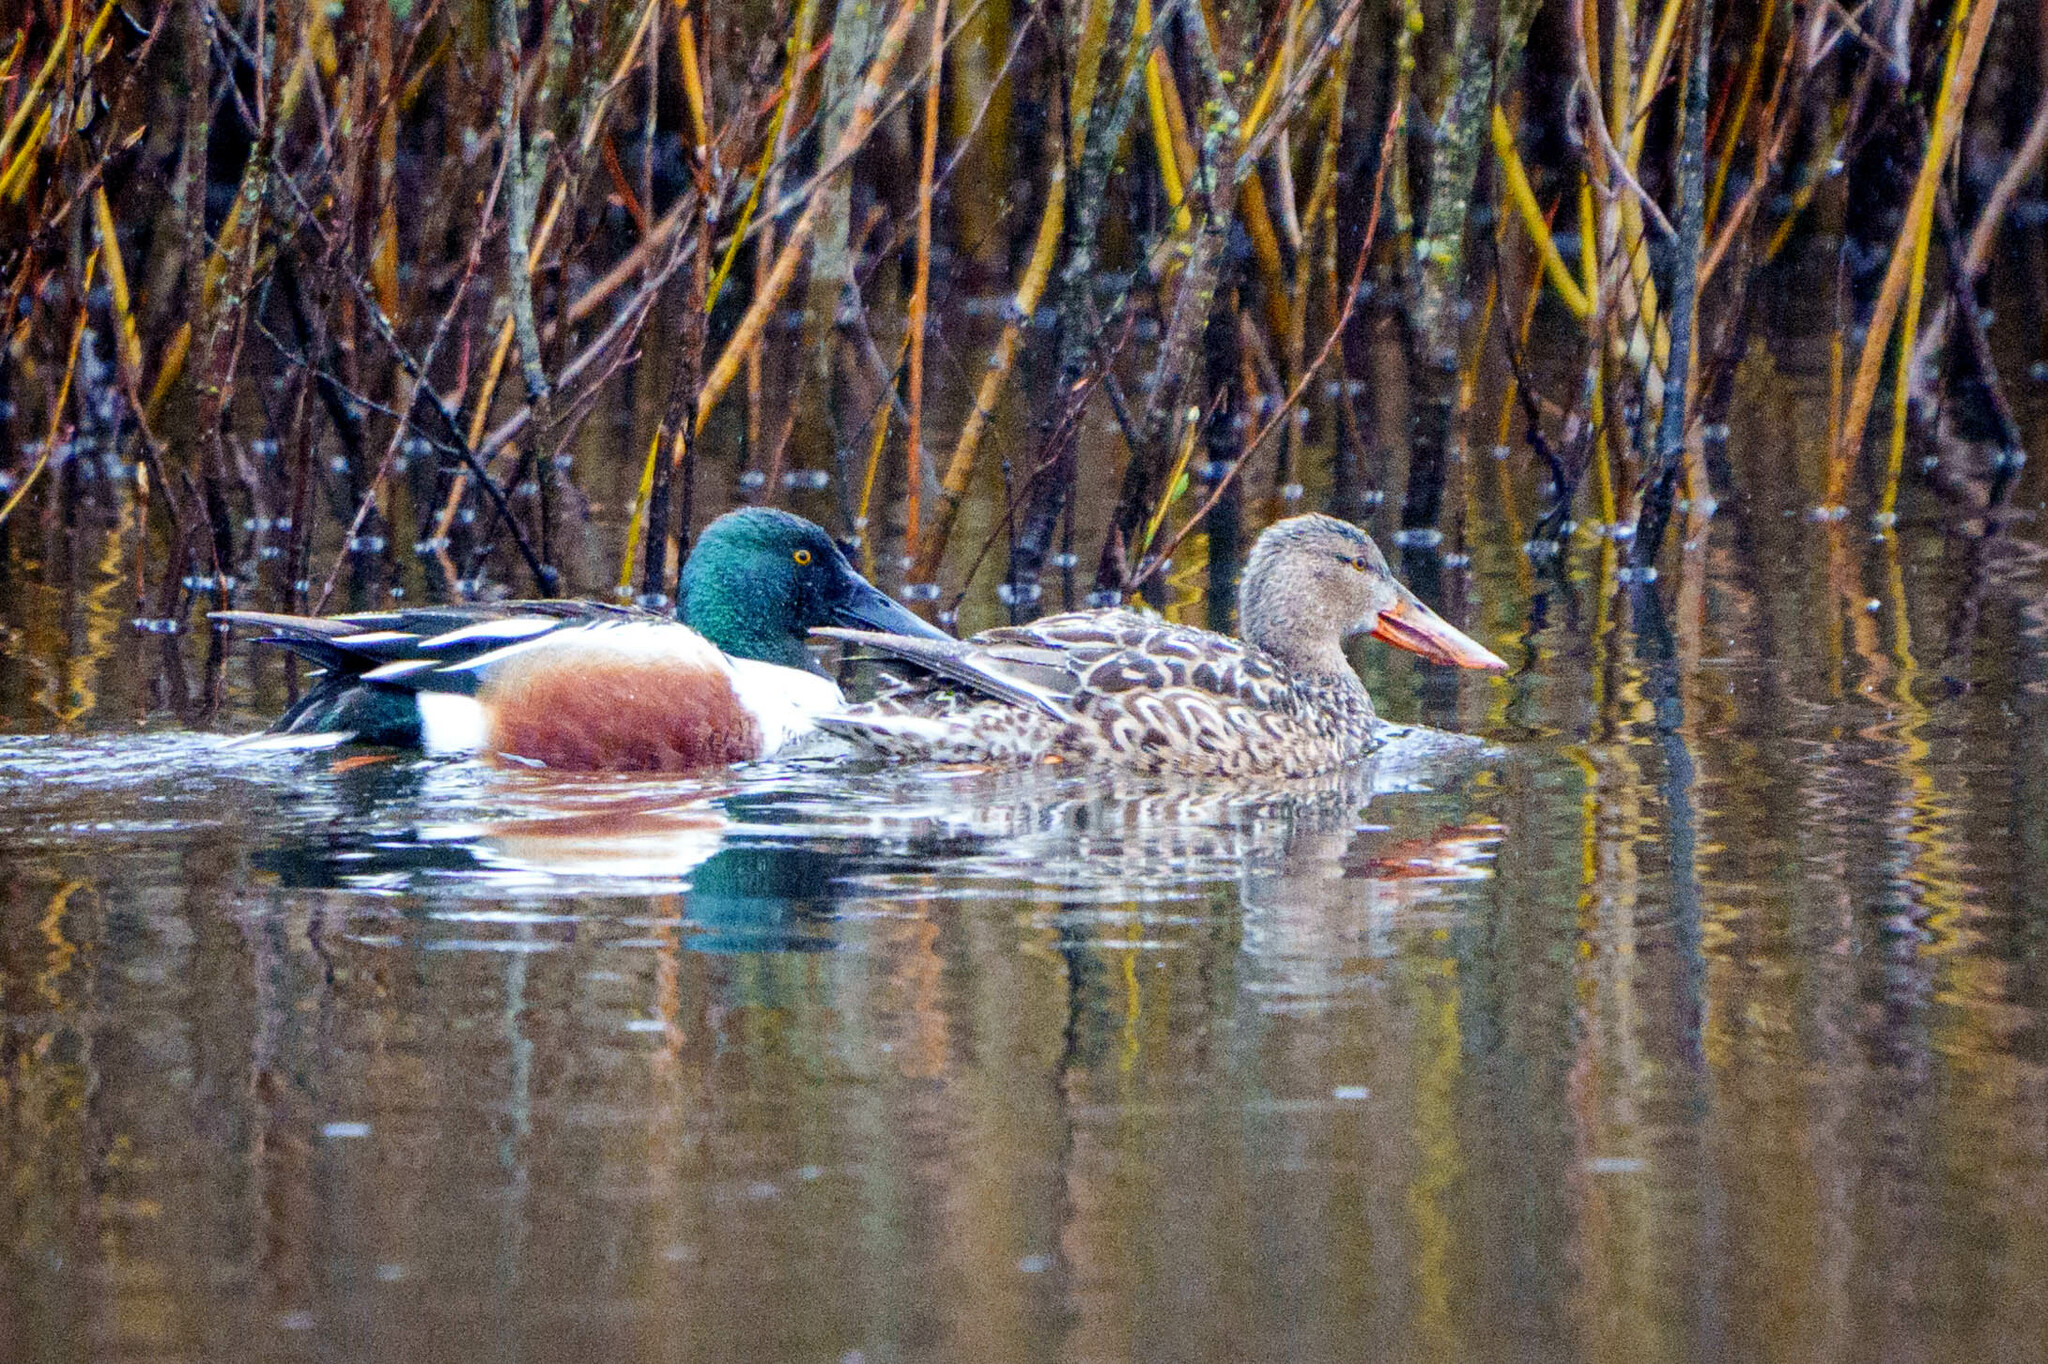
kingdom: Animalia
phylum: Chordata
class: Aves
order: Anseriformes
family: Anatidae
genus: Spatula
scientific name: Spatula clypeata
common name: Northern shoveler
